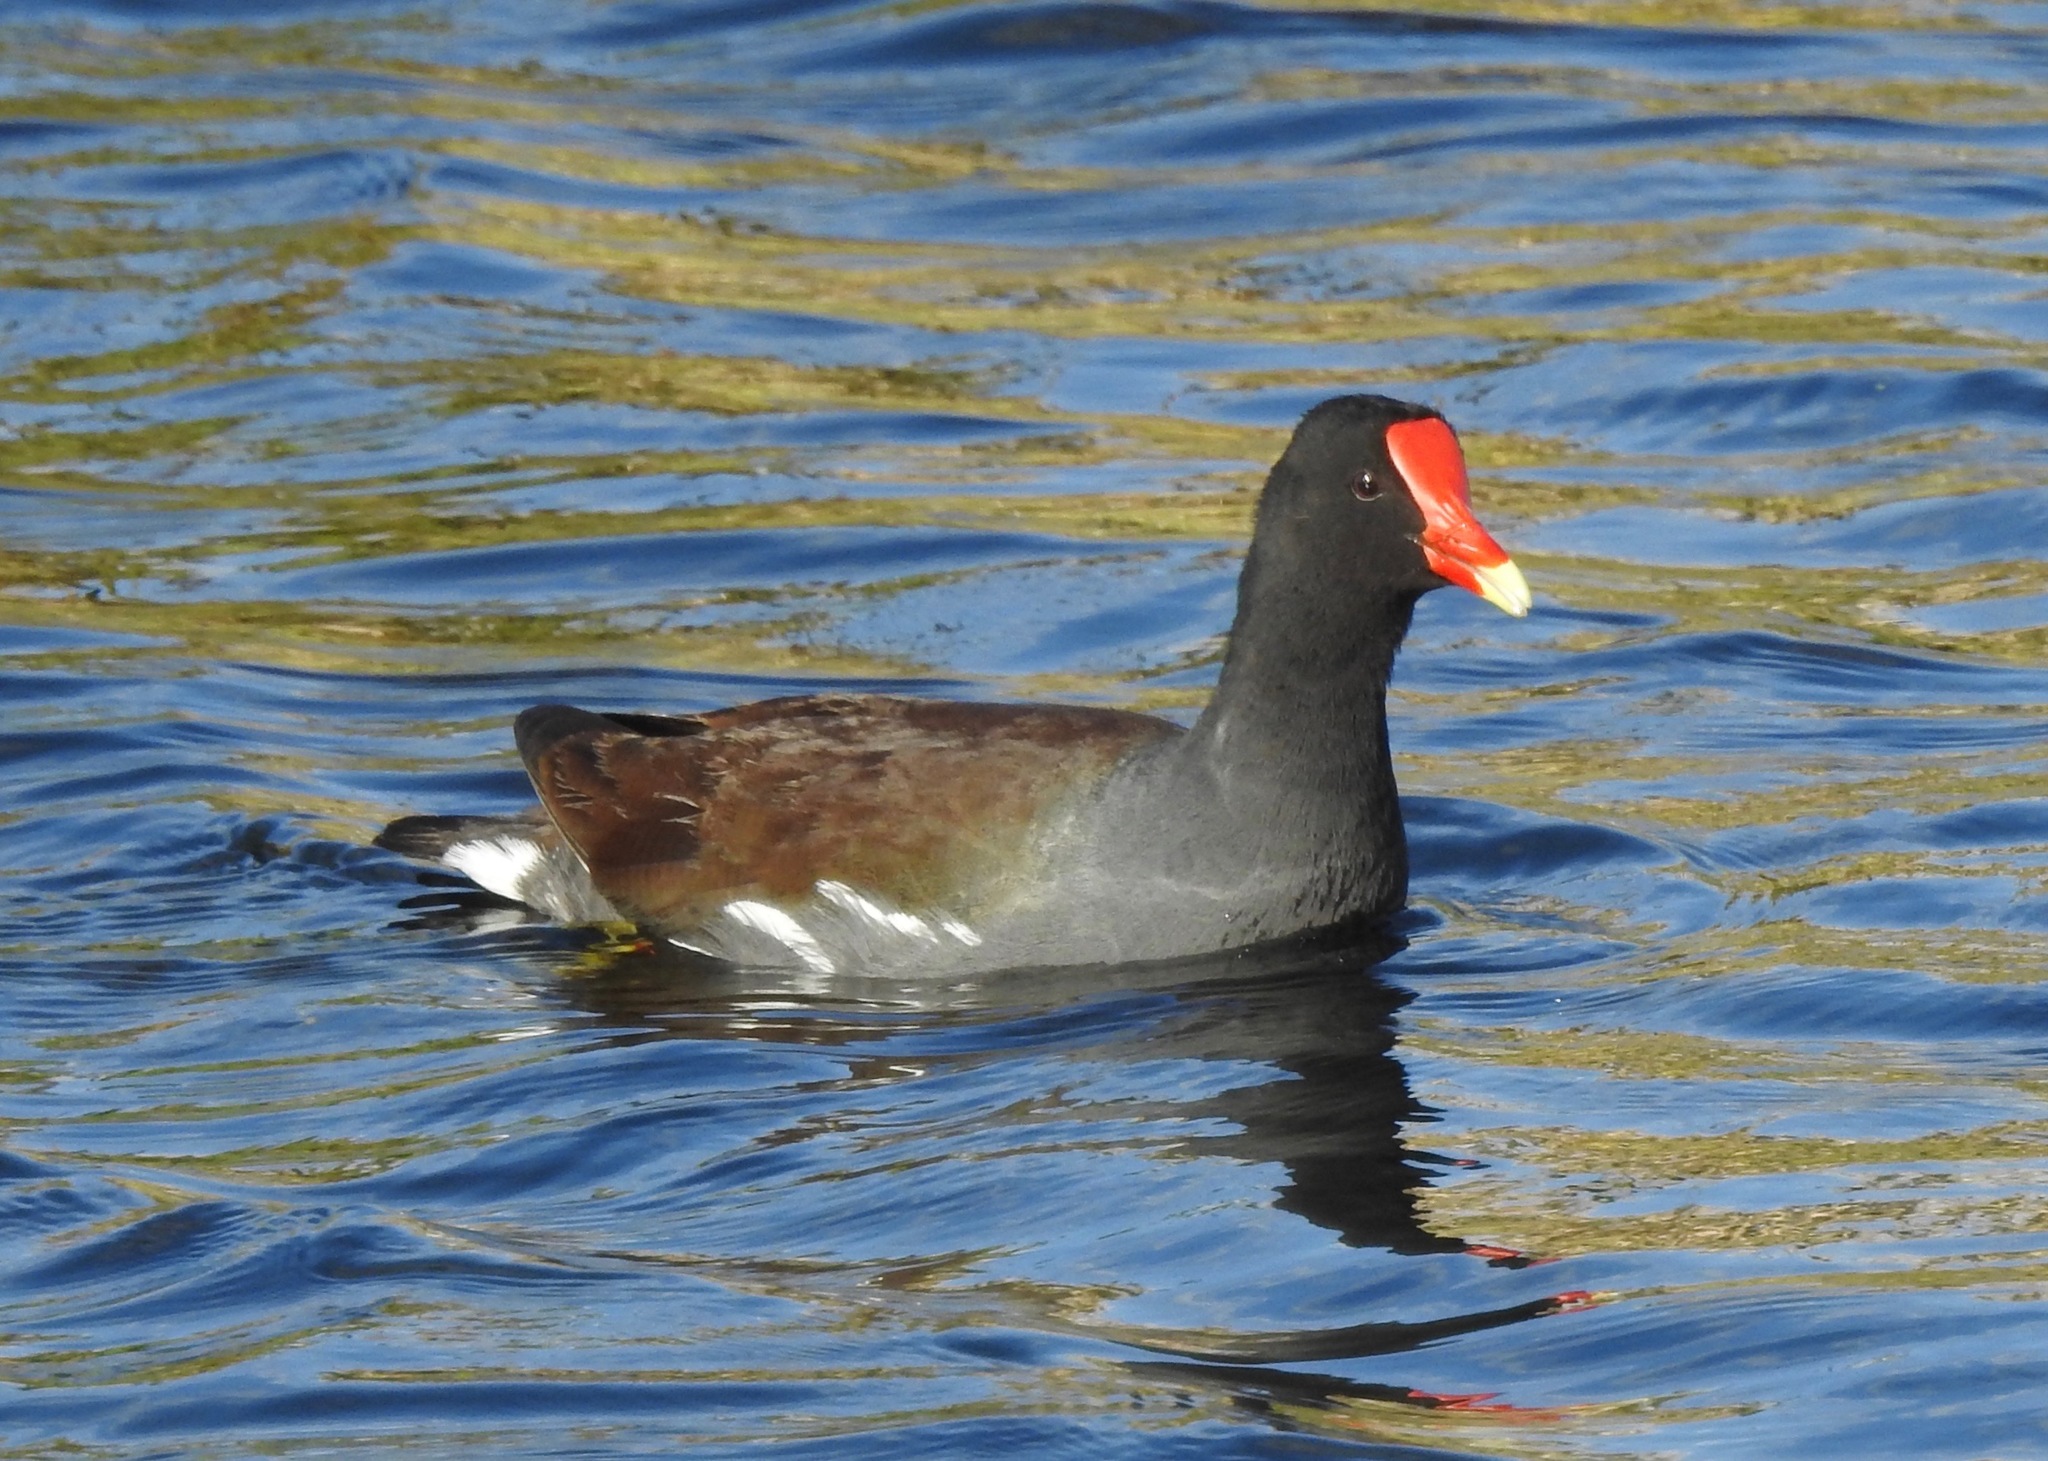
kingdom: Animalia
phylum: Chordata
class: Aves
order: Gruiformes
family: Rallidae
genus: Gallinula
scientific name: Gallinula chloropus
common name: Common moorhen
